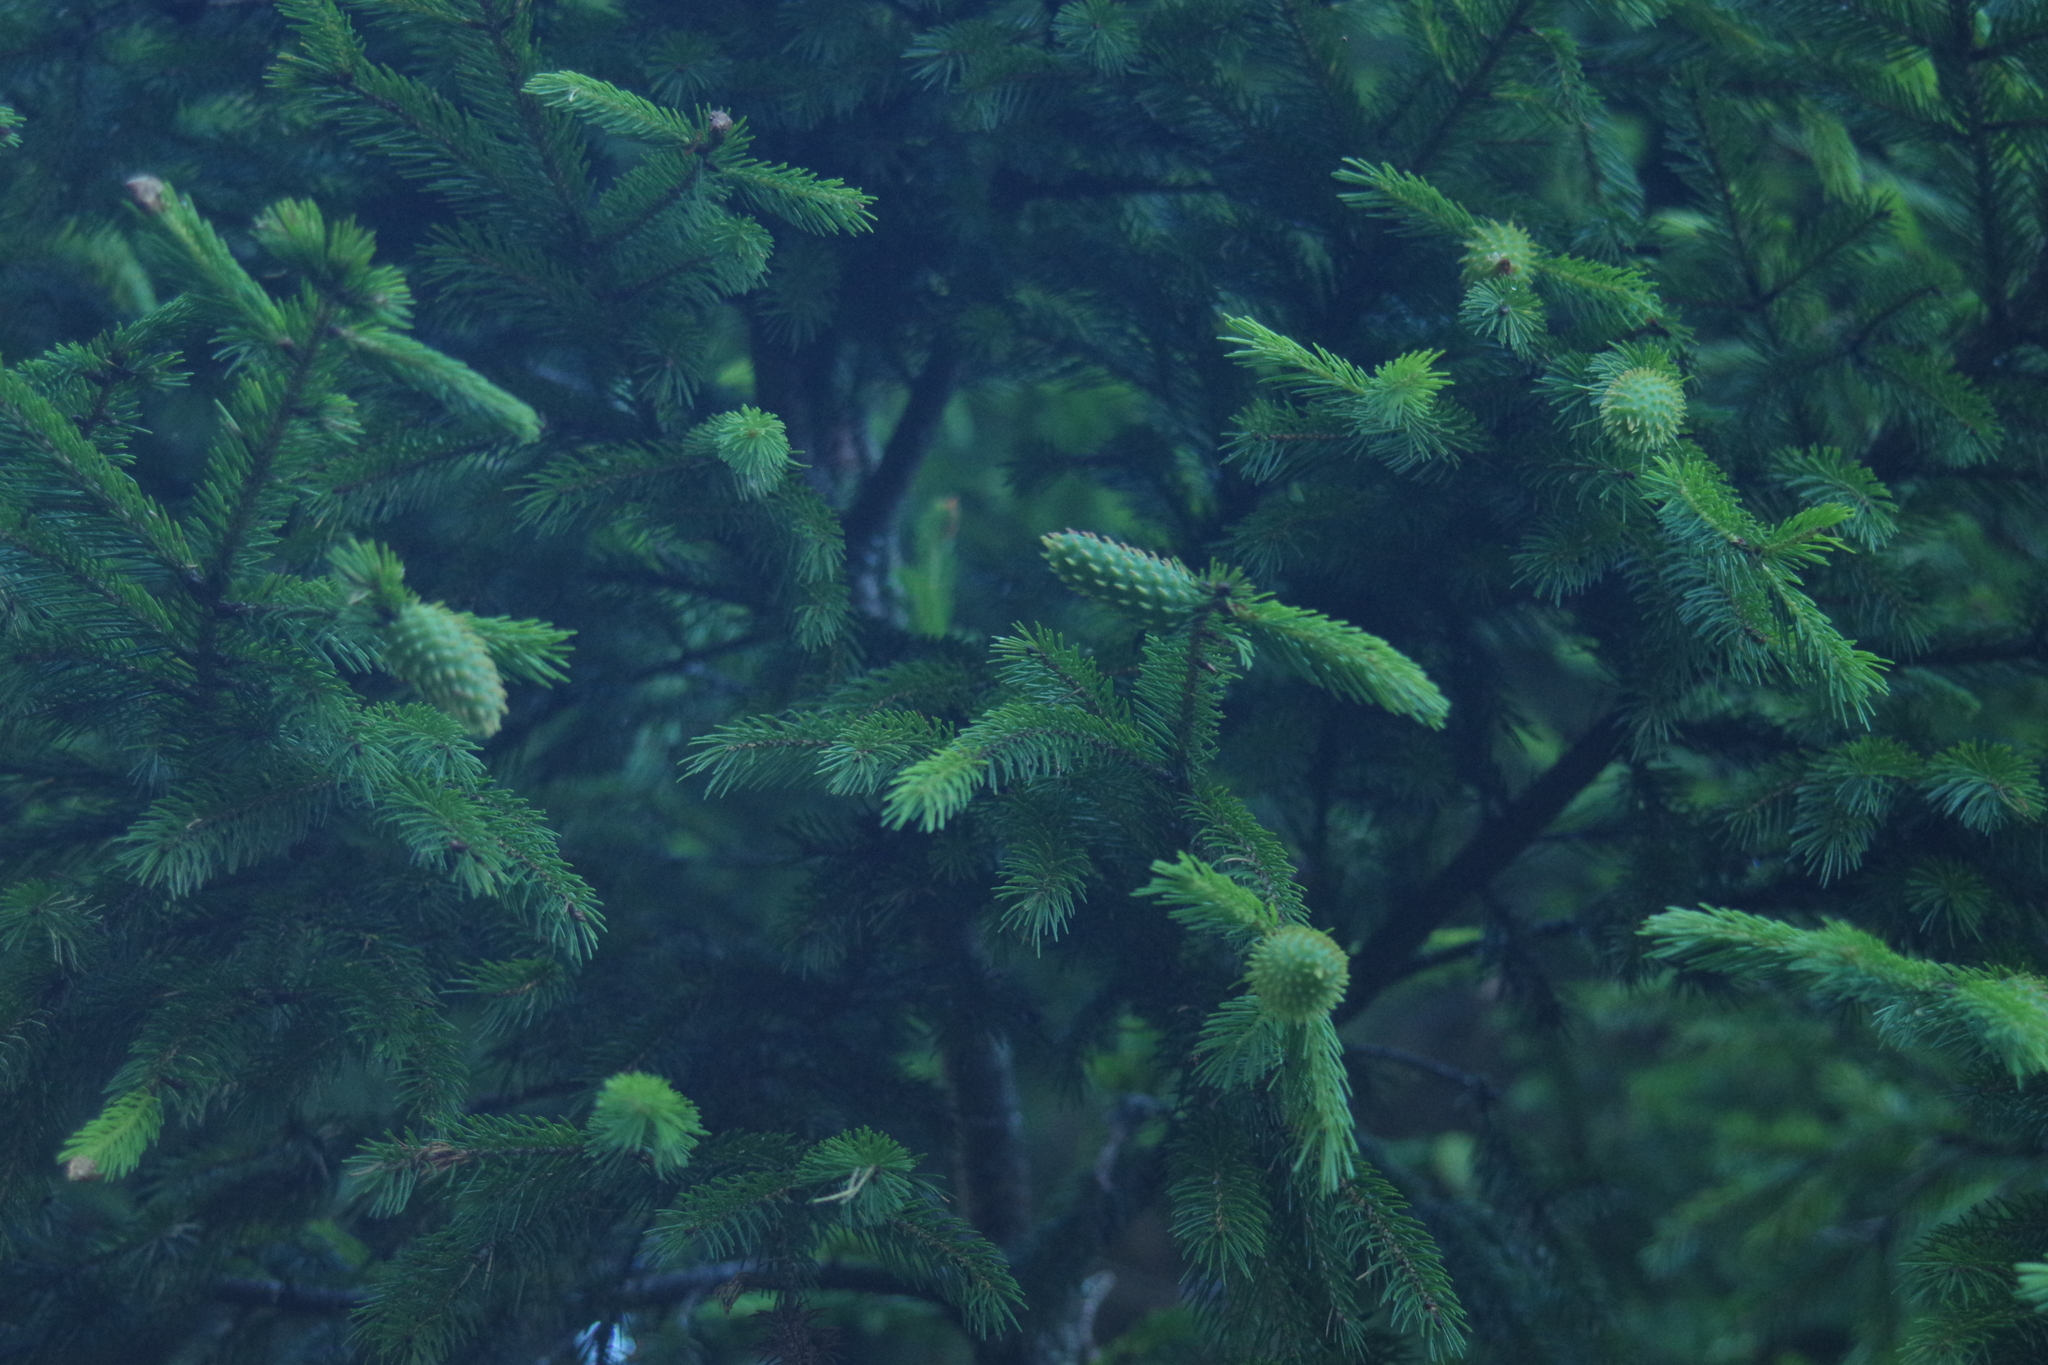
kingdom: Plantae
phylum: Tracheophyta
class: Pinopsida
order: Pinales
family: Pinaceae
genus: Picea
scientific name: Picea morrisonicola
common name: Mount morrison spruce
